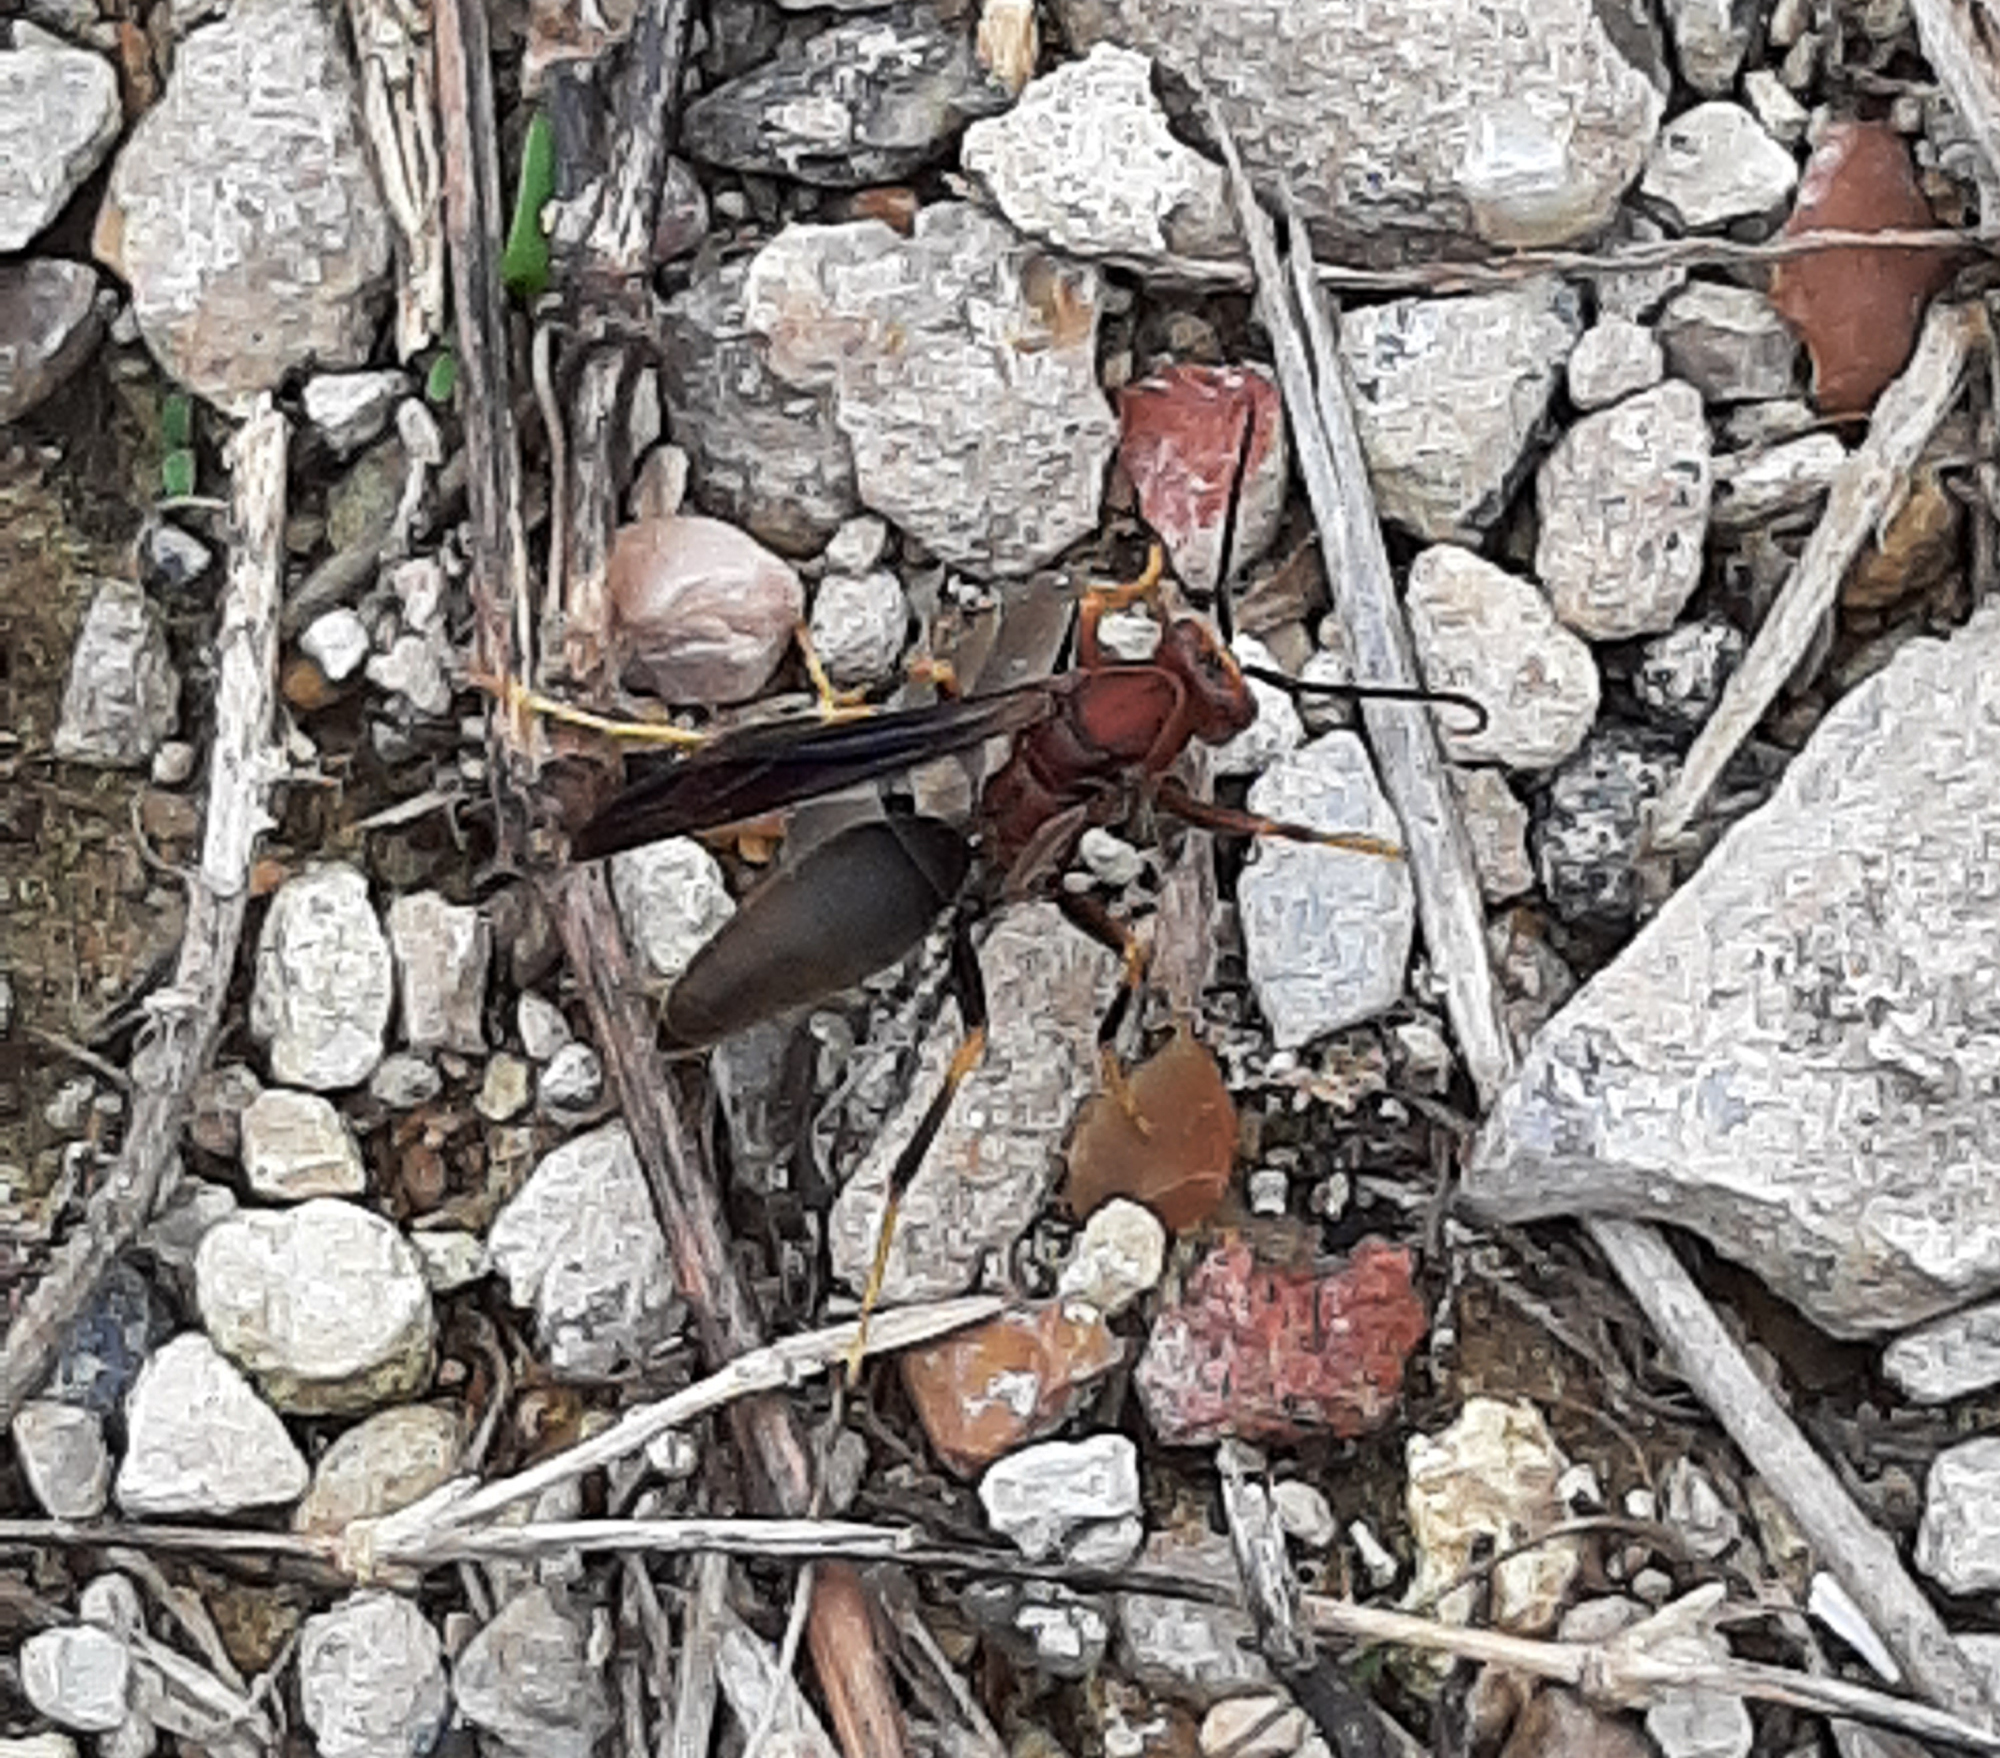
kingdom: Animalia
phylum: Arthropoda
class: Insecta
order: Hymenoptera
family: Eumenidae
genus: Polistes
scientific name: Polistes metricus
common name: Metric paper wasp
